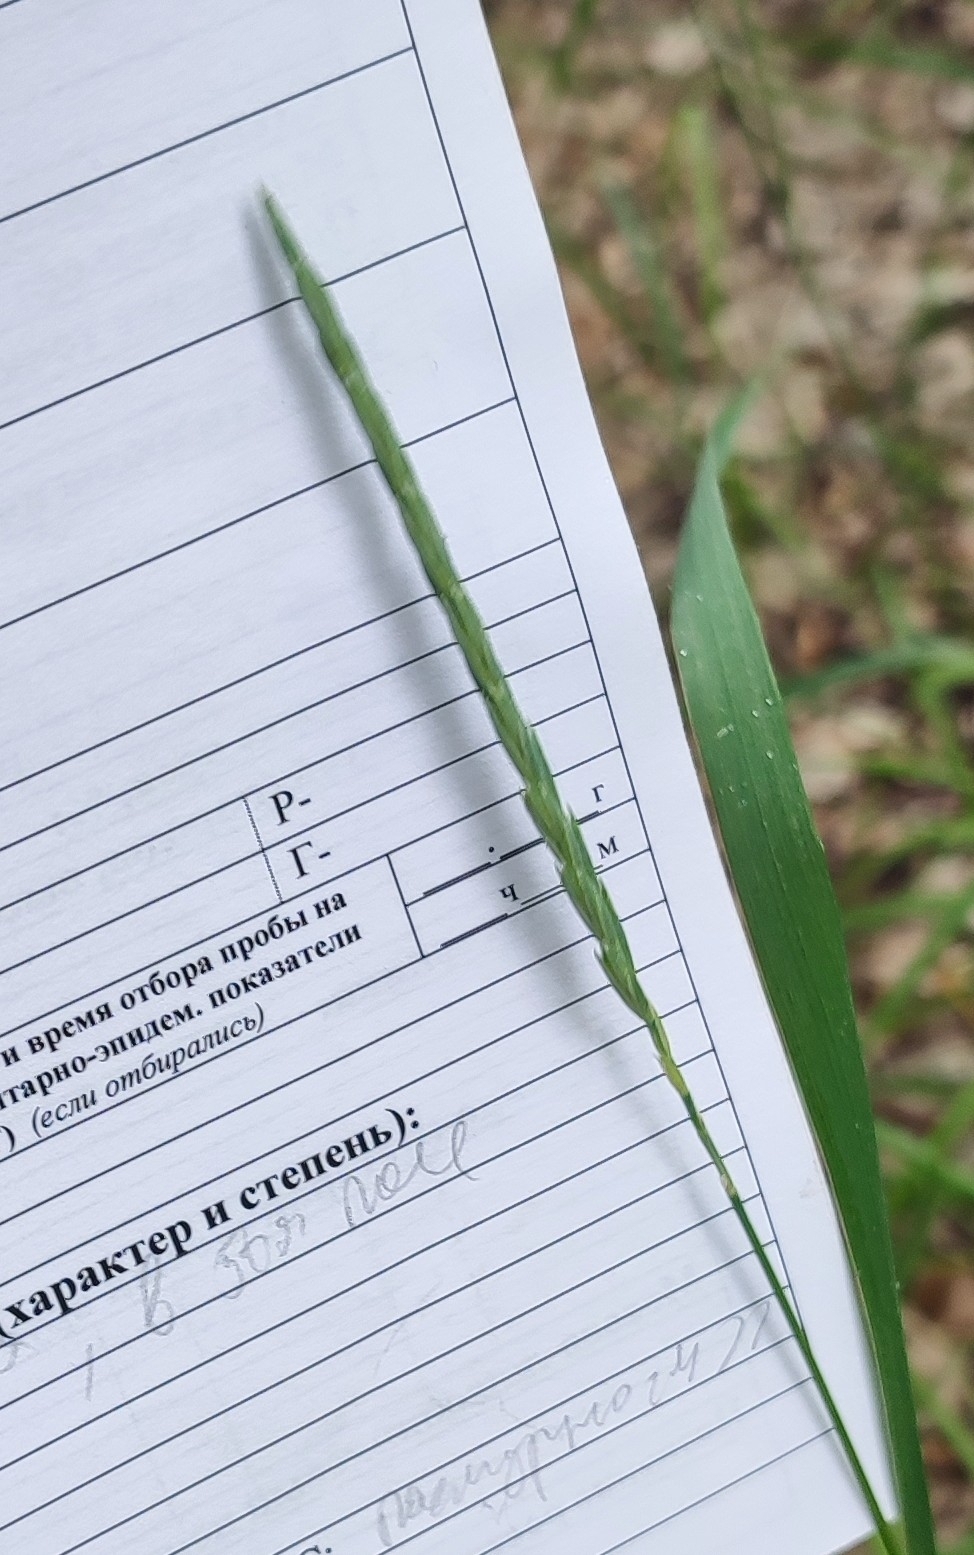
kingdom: Plantae
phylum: Tracheophyta
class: Liliopsida
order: Poales
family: Poaceae
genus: Elymus
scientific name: Elymus repens
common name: Quackgrass
